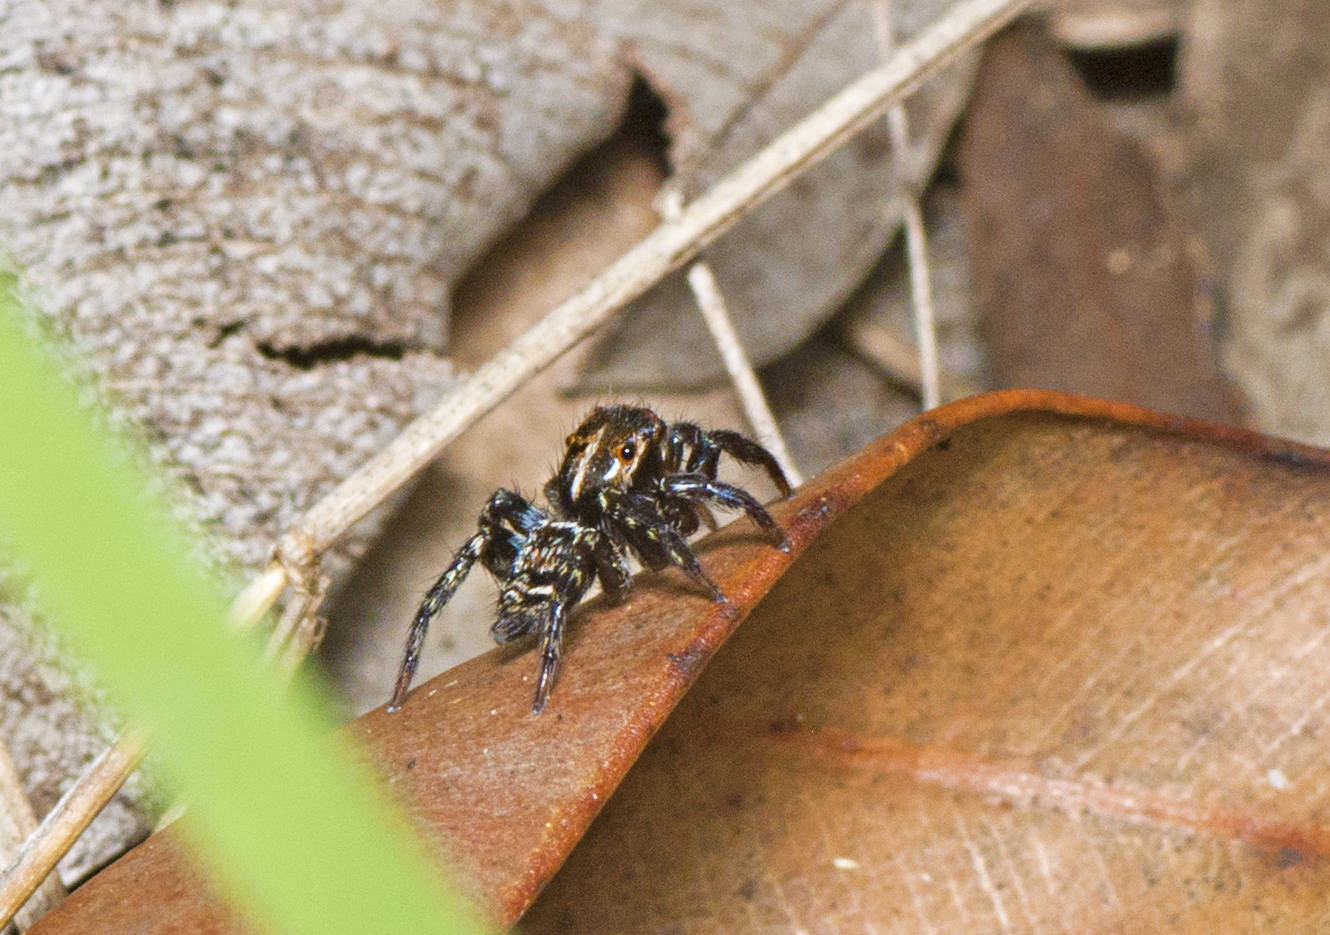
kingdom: Animalia
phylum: Arthropoda
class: Arachnida
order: Araneae
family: Salticidae
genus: Saitis
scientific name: Saitis virgatus
